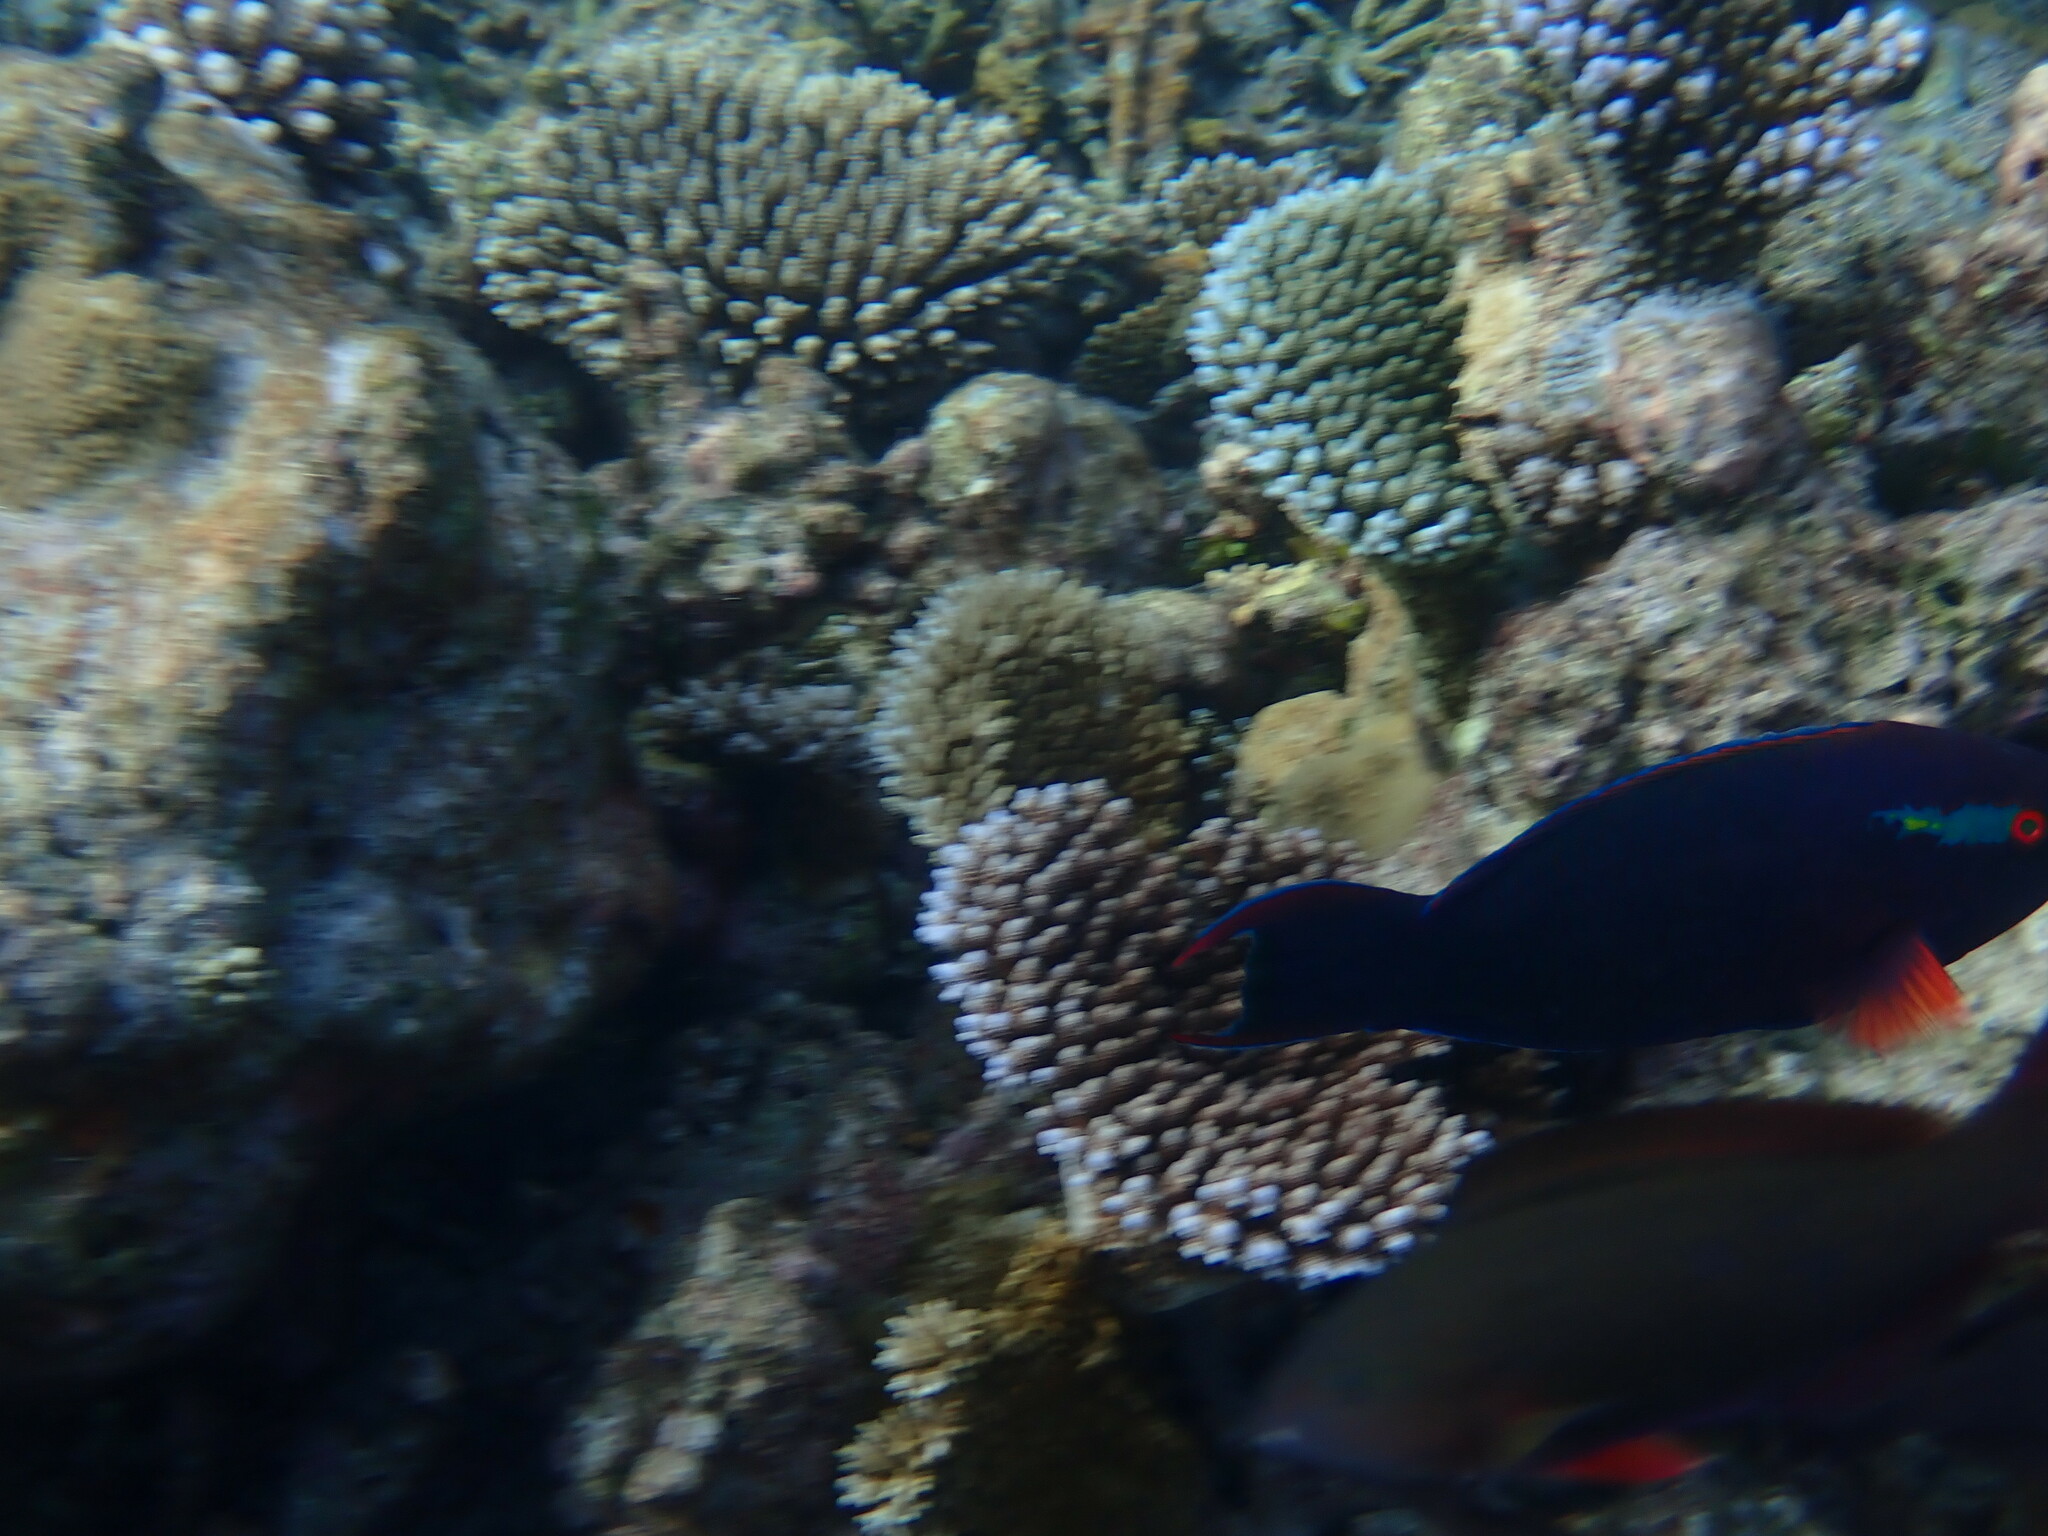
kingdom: Animalia
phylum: Chordata
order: Perciformes
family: Scaridae
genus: Scarus
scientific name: Scarus niger
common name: Dusky parrotfish
